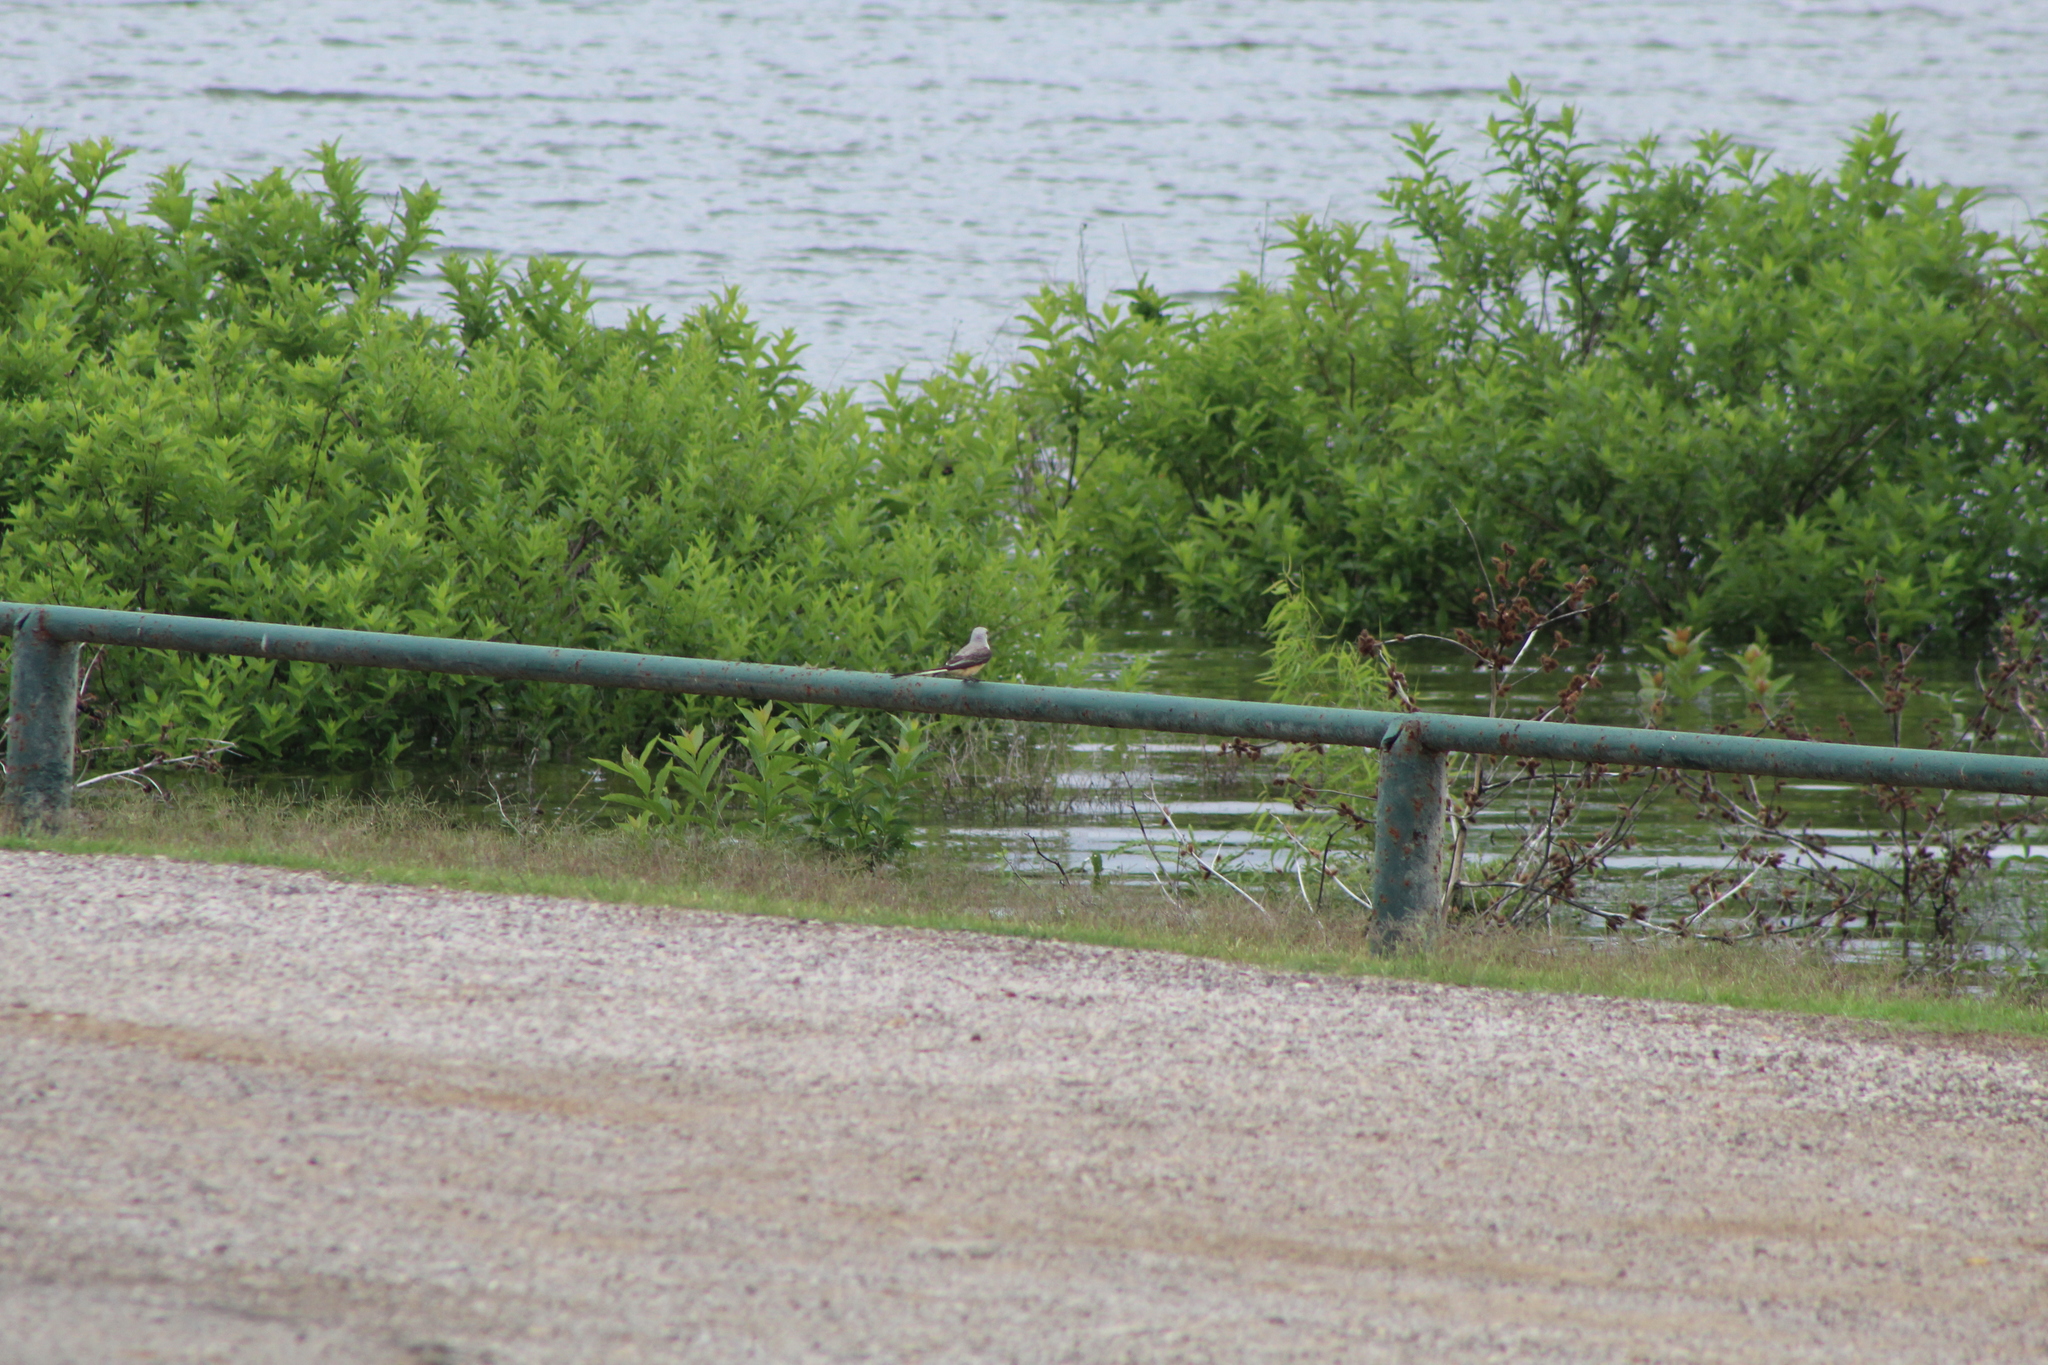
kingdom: Animalia
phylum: Chordata
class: Aves
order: Passeriformes
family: Tyrannidae
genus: Tyrannus
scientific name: Tyrannus forficatus
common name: Scissor-tailed flycatcher
